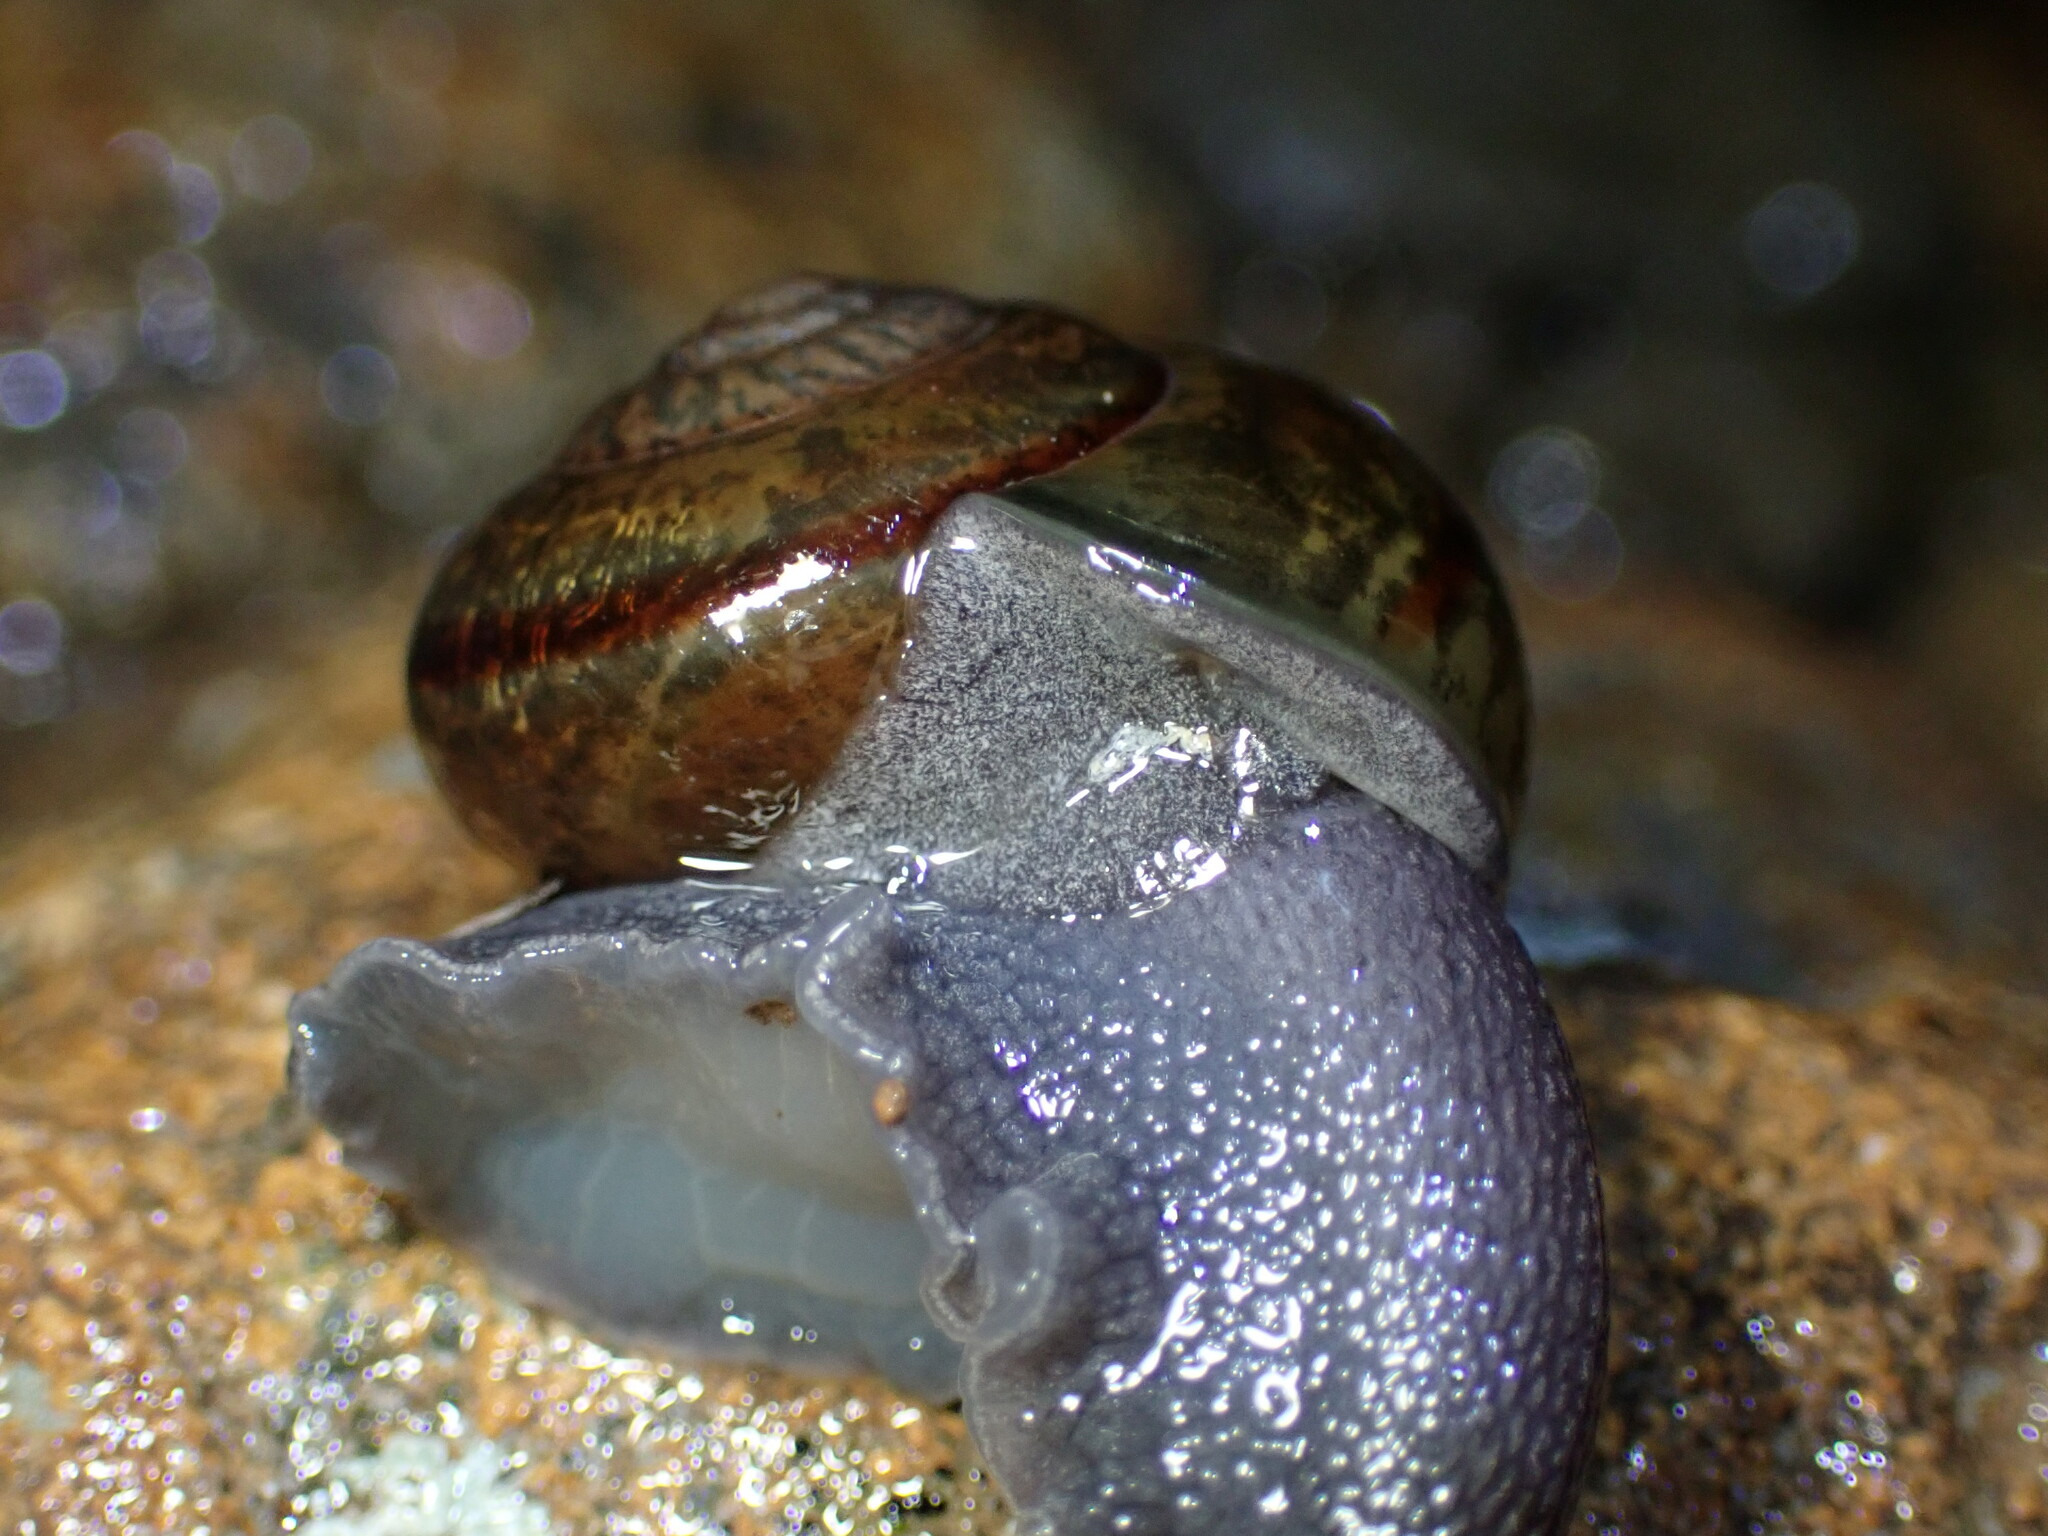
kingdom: Animalia
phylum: Mollusca
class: Gastropoda
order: Stylommatophora
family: Xanthonychidae
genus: Helminthoglypta
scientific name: Helminthoglypta tudiculata
